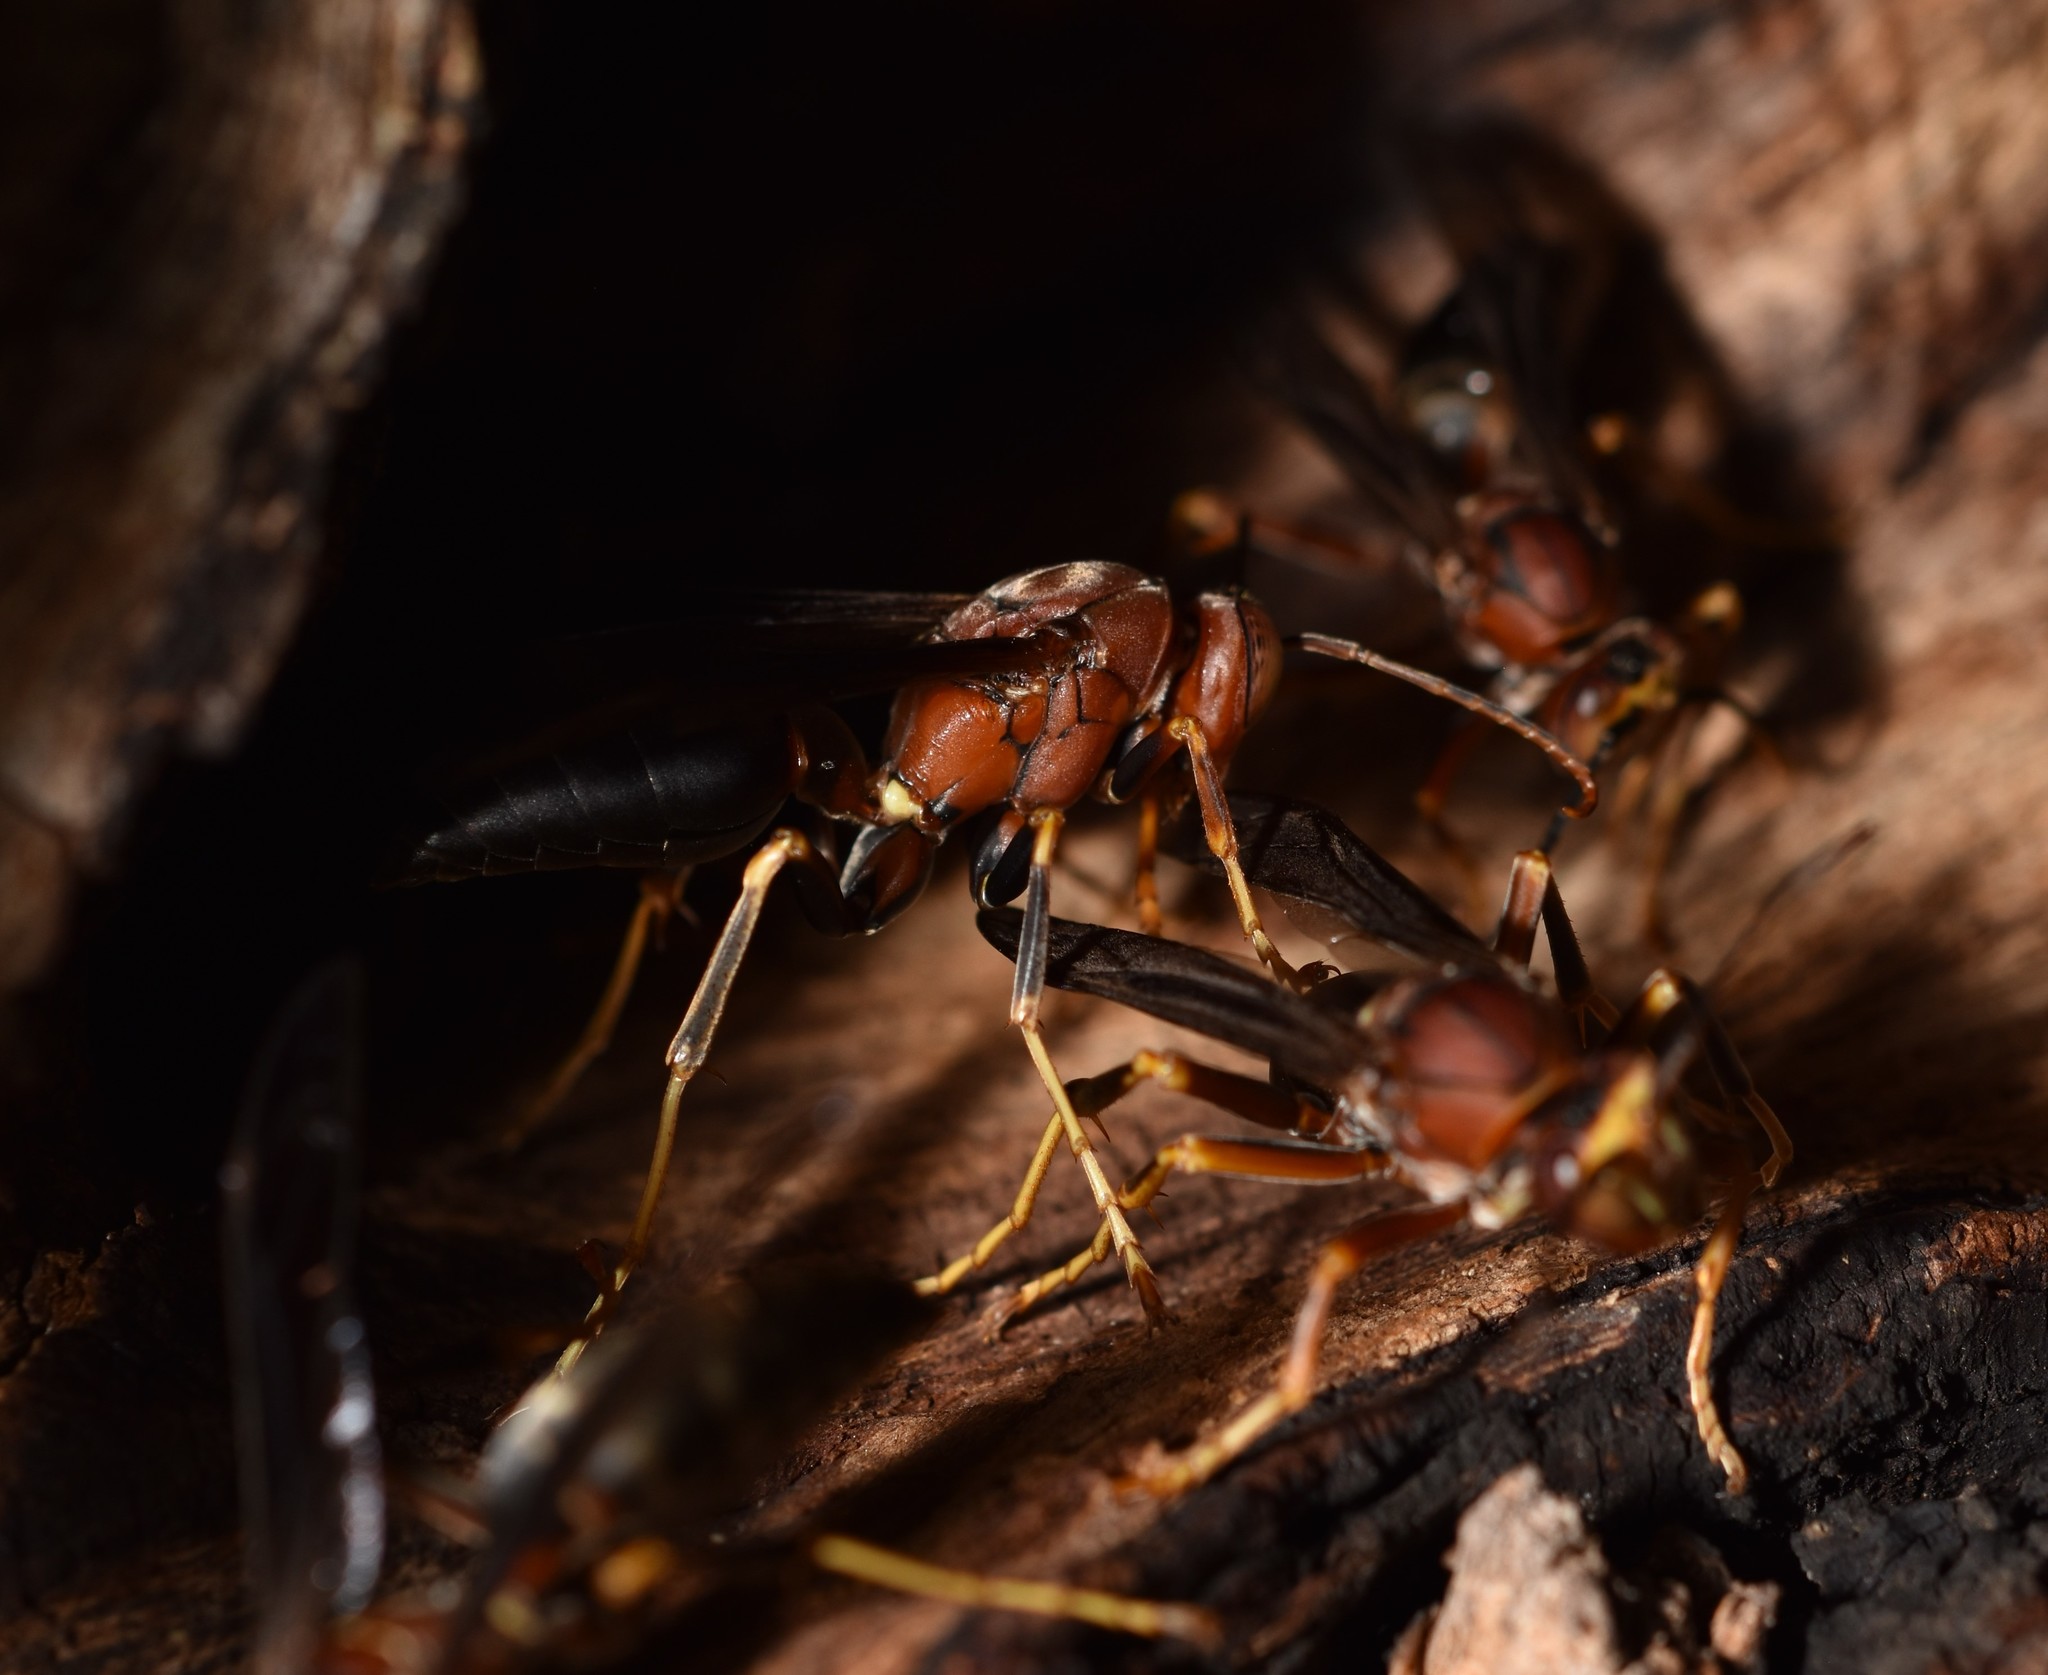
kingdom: Animalia
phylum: Arthropoda
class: Insecta
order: Hymenoptera
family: Eumenidae
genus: Polistes
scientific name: Polistes metricus
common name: Metric paper wasp
